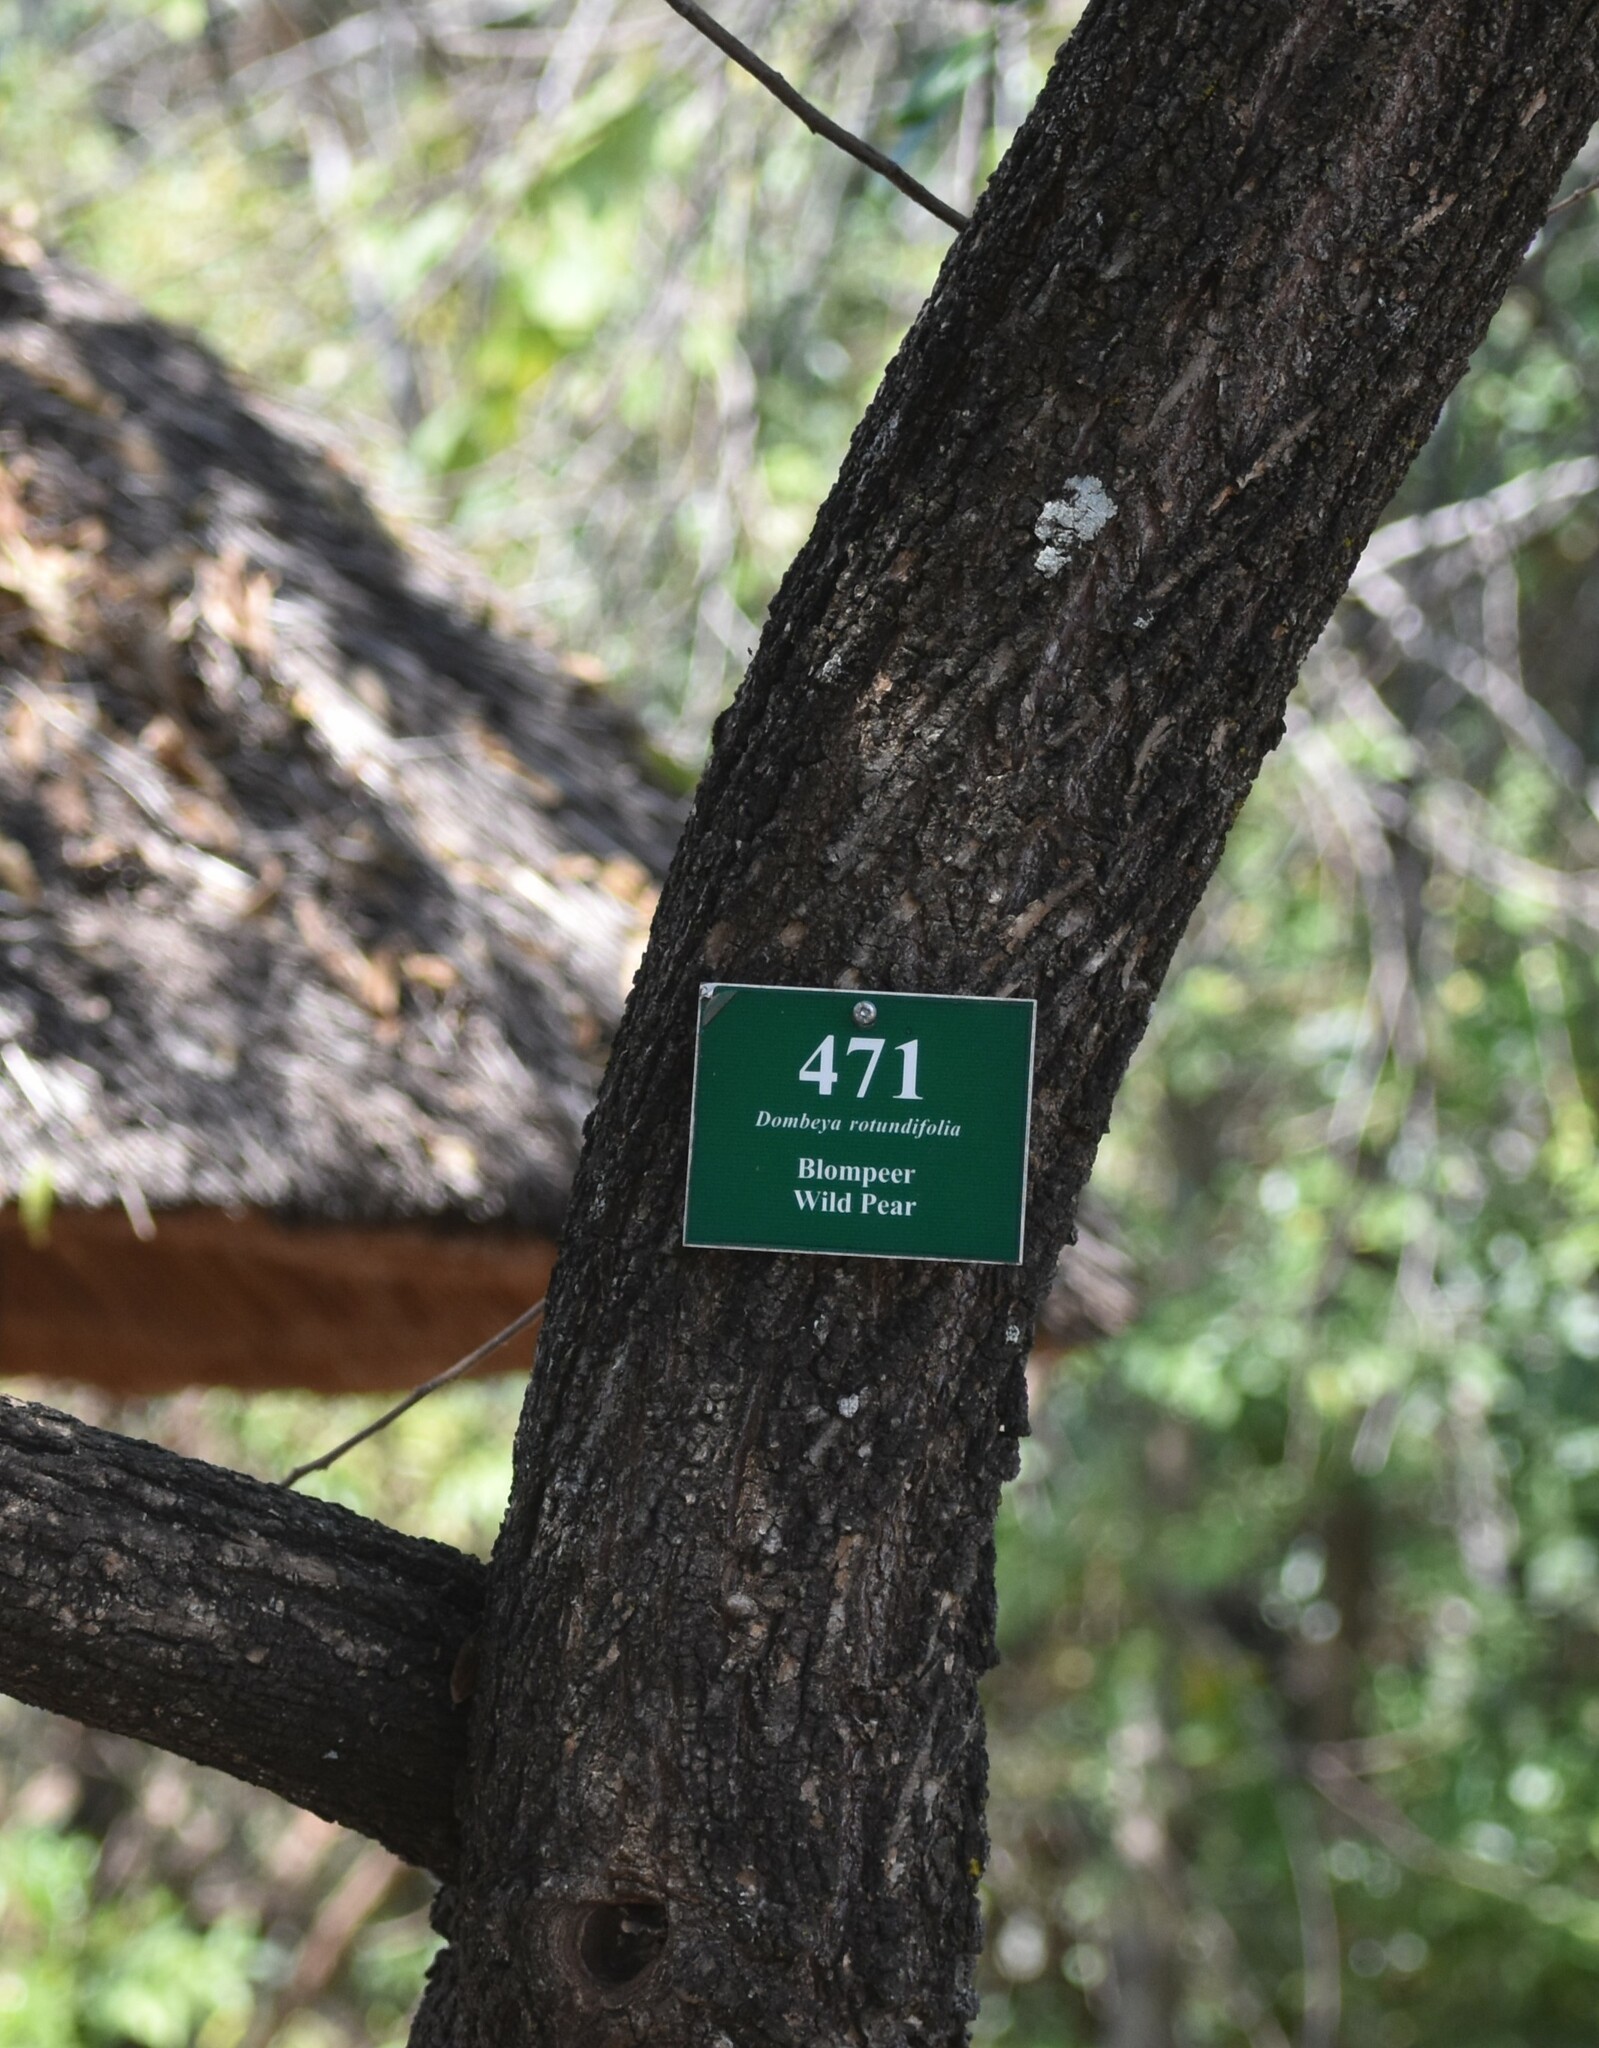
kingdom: Plantae
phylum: Tracheophyta
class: Magnoliopsida
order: Malvales
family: Malvaceae
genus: Dombeya
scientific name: Dombeya rotundifolia
